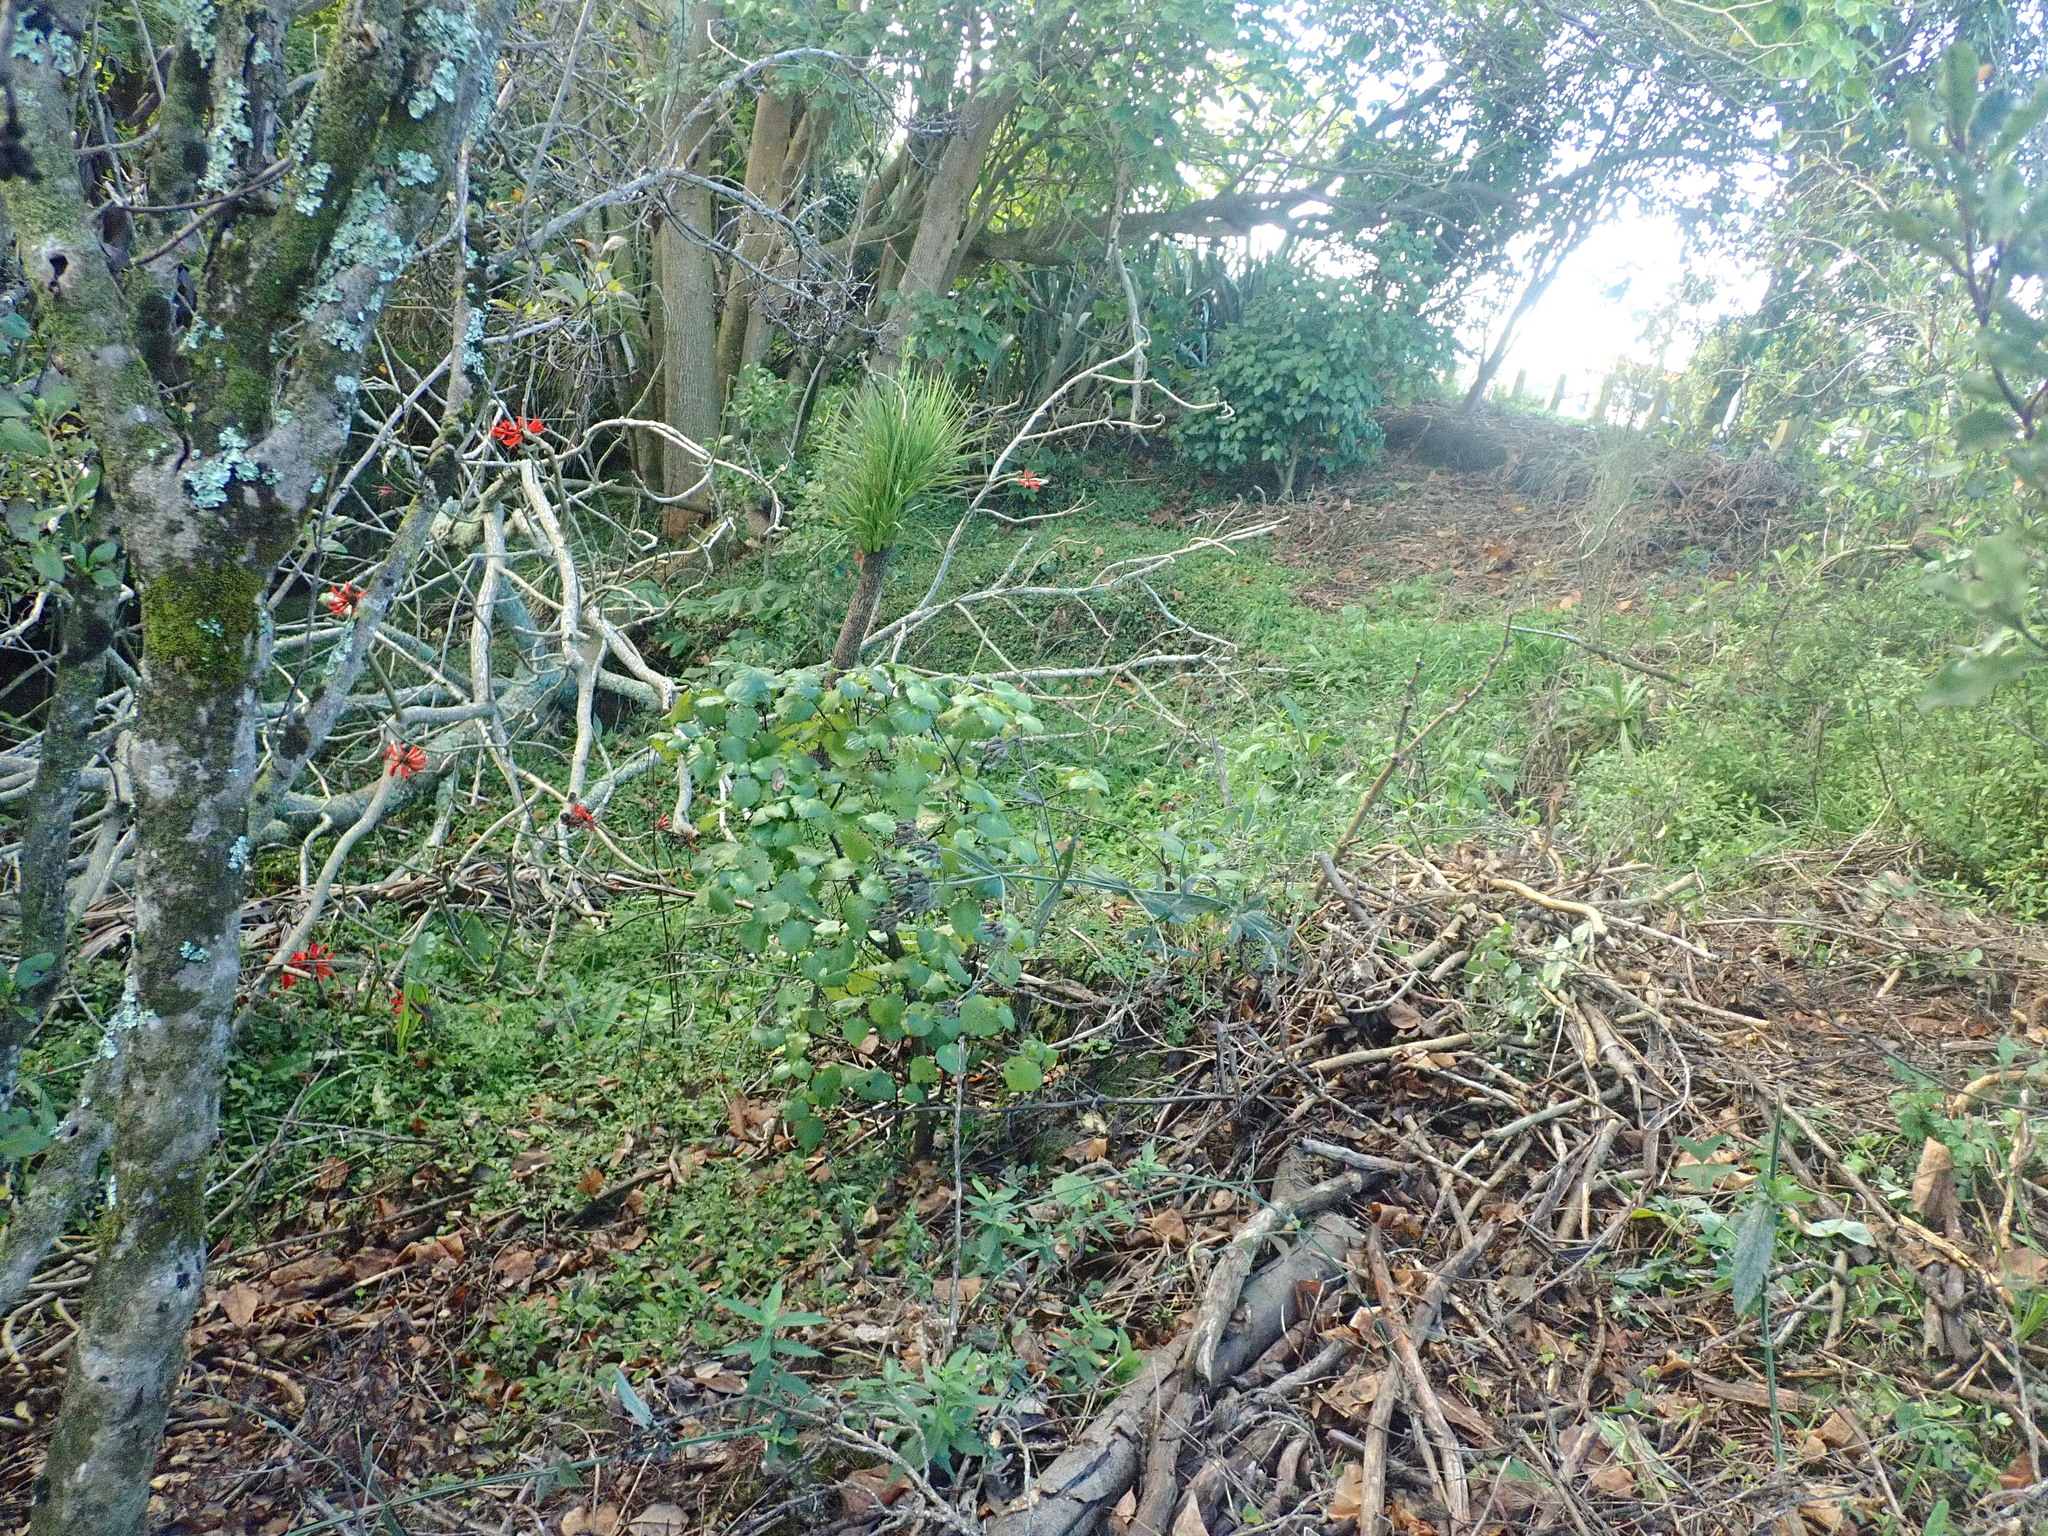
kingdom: Plantae
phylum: Tracheophyta
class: Magnoliopsida
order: Piperales
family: Piperaceae
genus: Macropiper
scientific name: Macropiper excelsum
